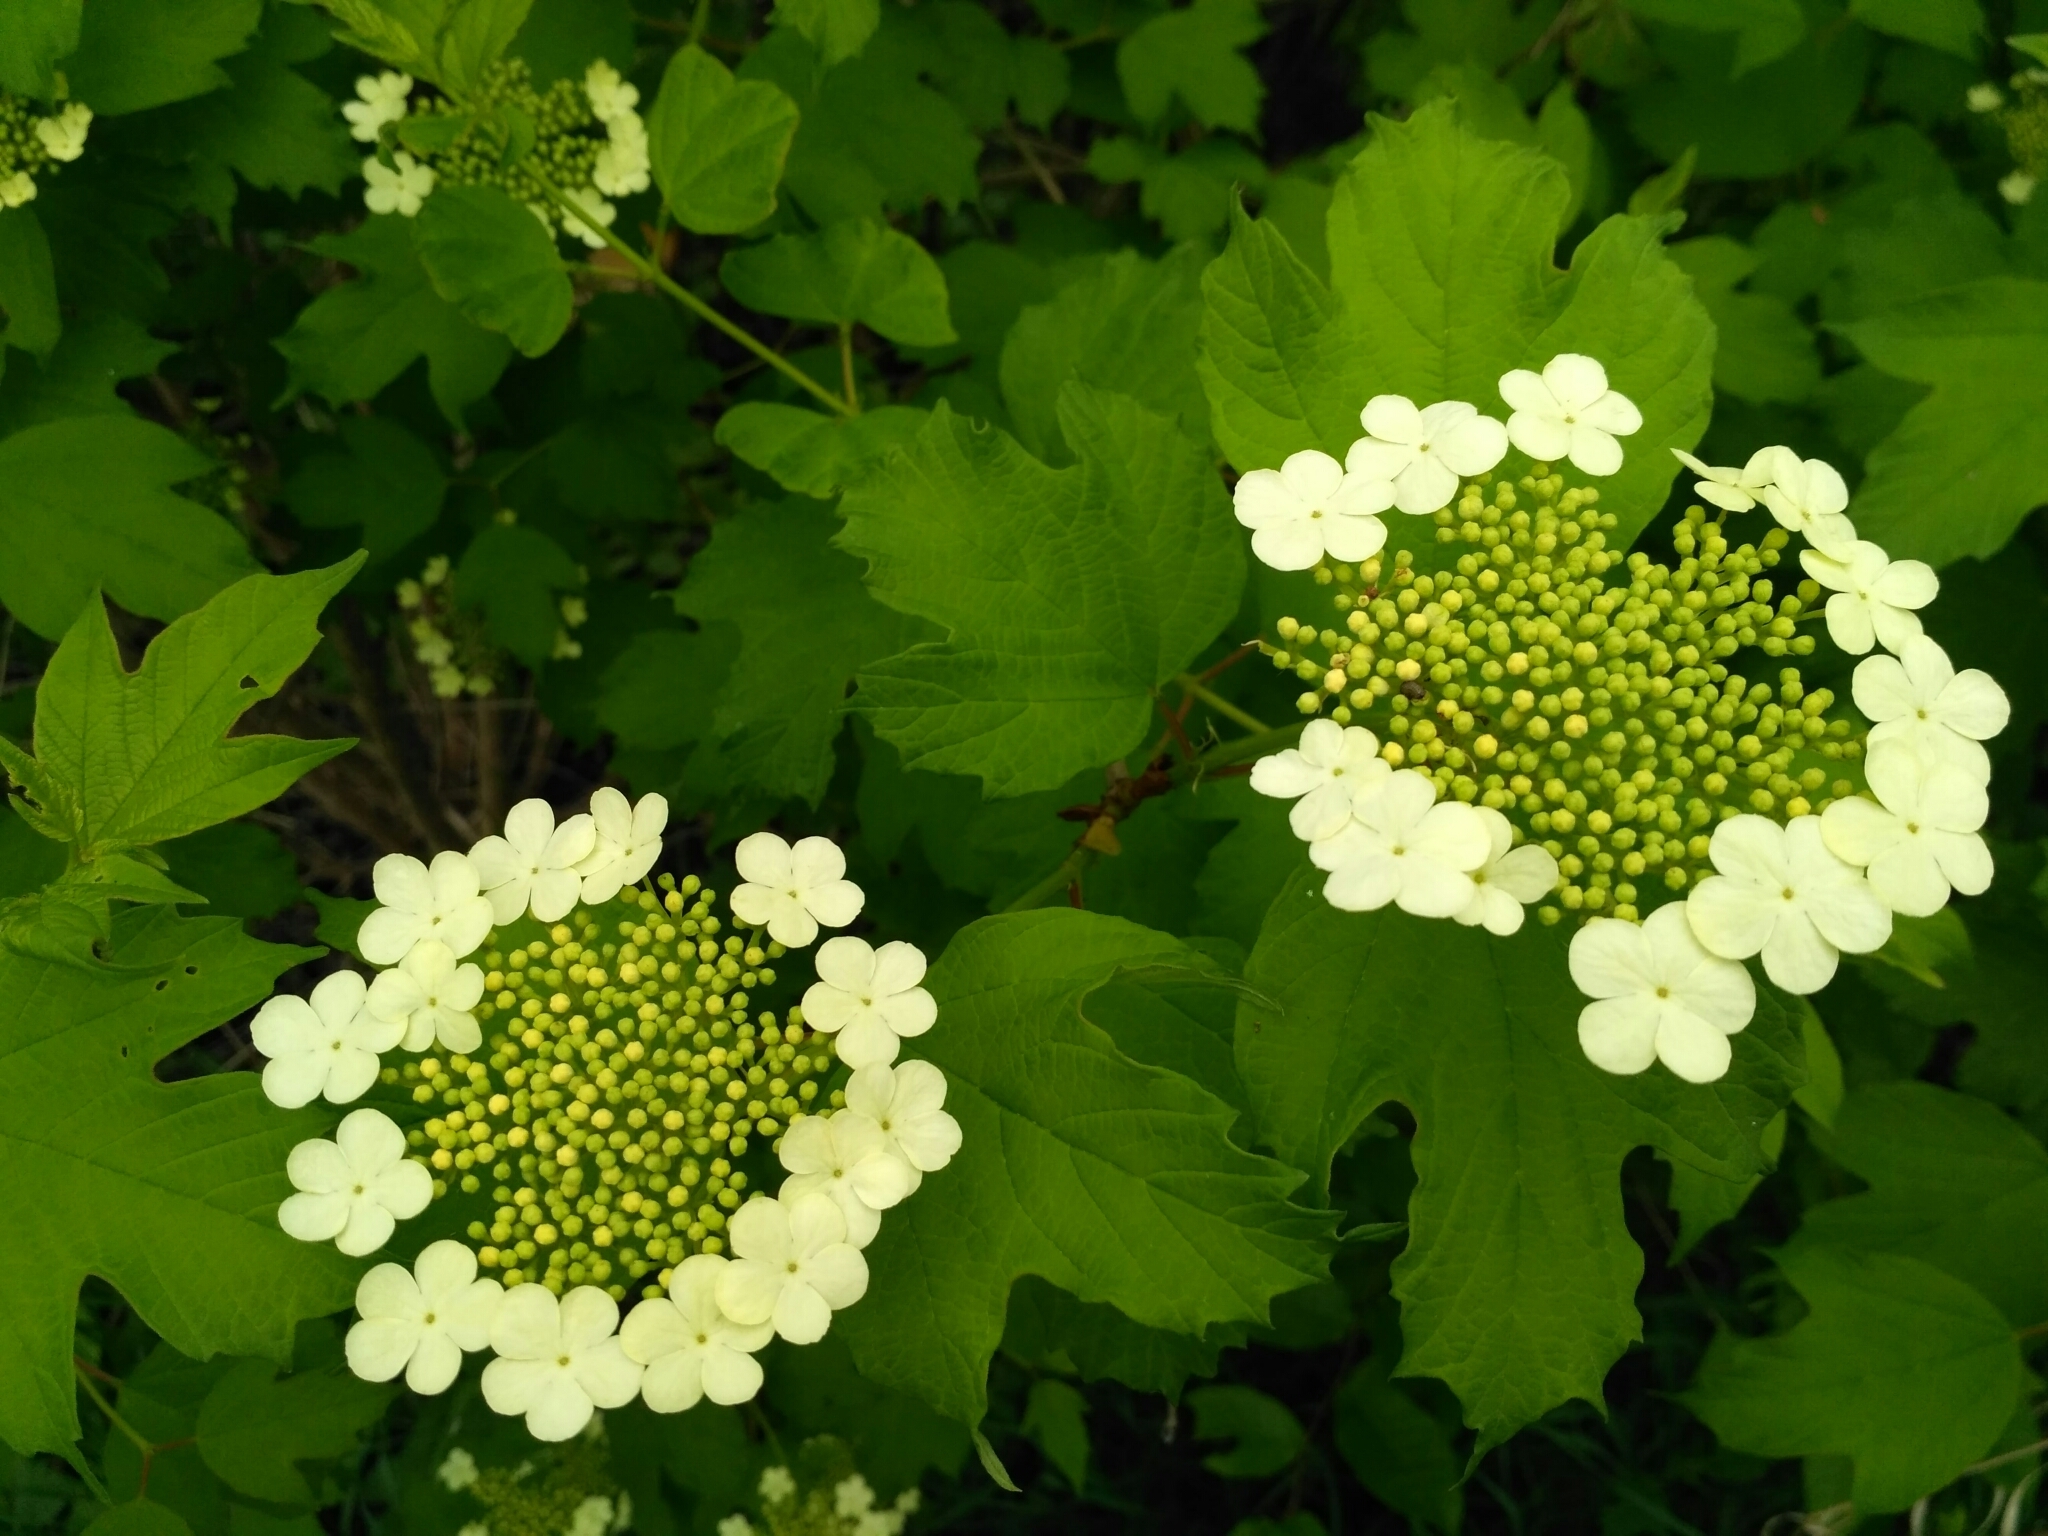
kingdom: Plantae
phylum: Tracheophyta
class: Magnoliopsida
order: Dipsacales
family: Viburnaceae
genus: Viburnum
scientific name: Viburnum opulus
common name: Guelder-rose
